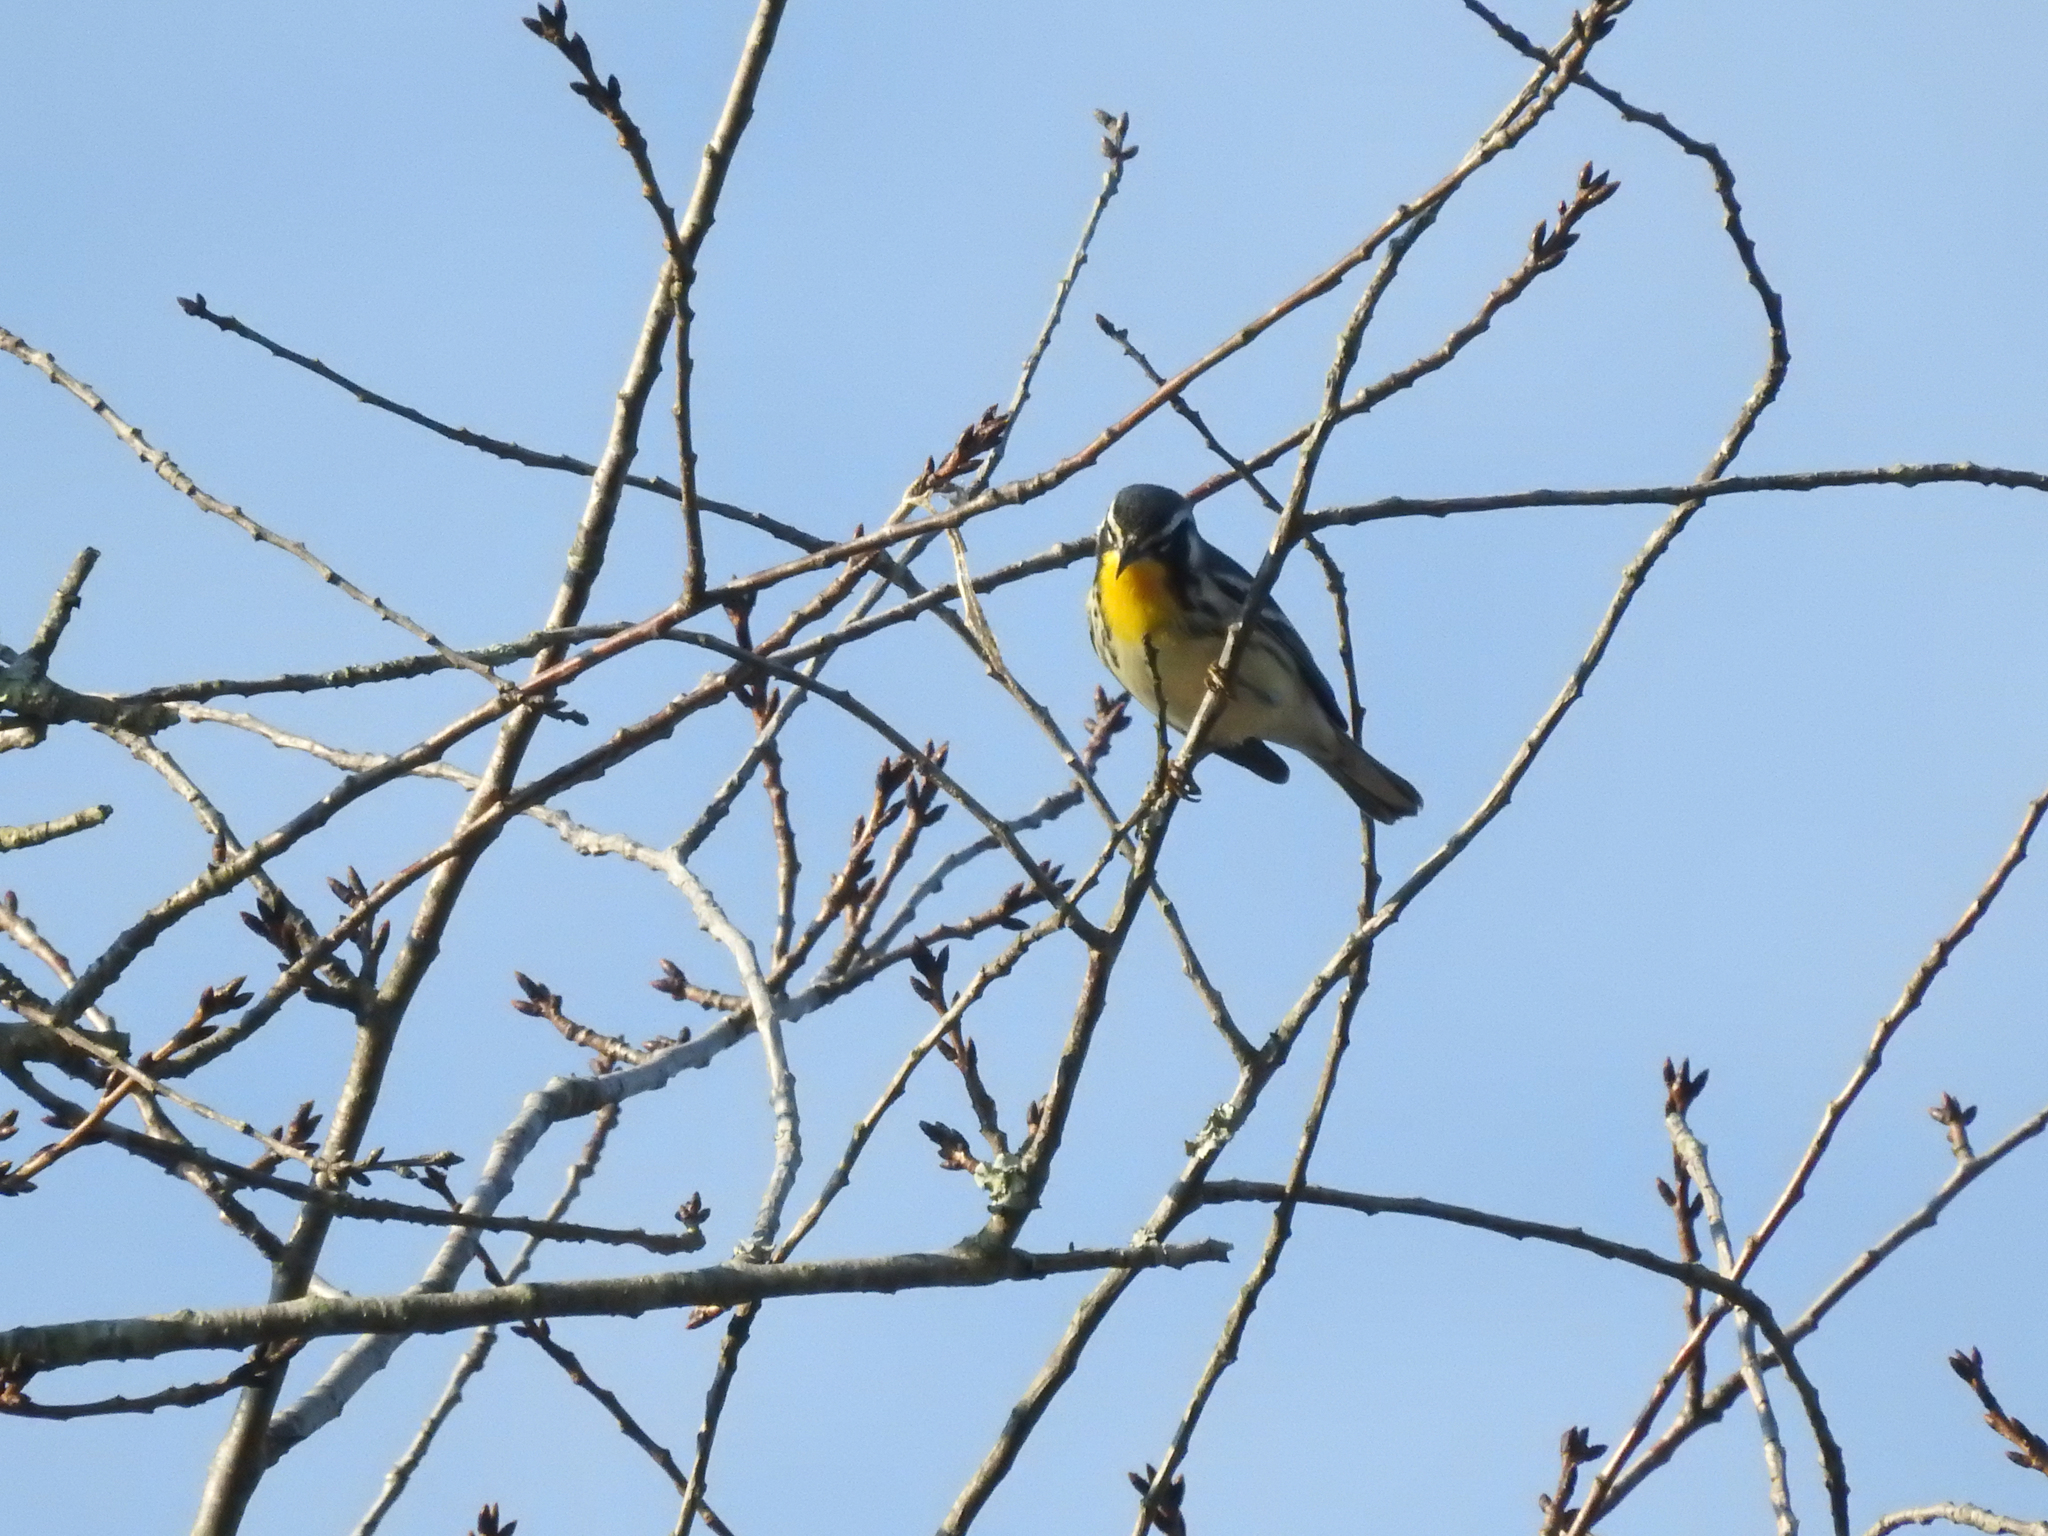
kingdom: Animalia
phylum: Chordata
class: Aves
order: Passeriformes
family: Parulidae
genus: Setophaga
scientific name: Setophaga dominica
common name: Yellow-throated warbler
